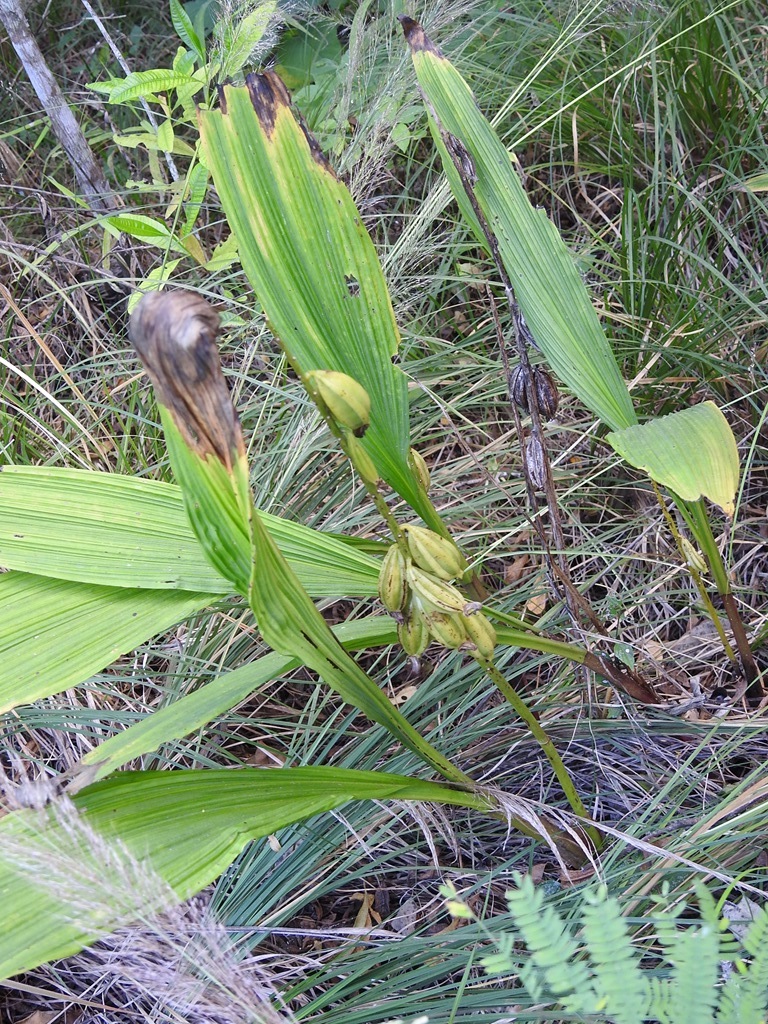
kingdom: Plantae
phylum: Tracheophyta
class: Liliopsida
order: Asparagales
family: Orchidaceae
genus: Govenia
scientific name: Govenia alba
